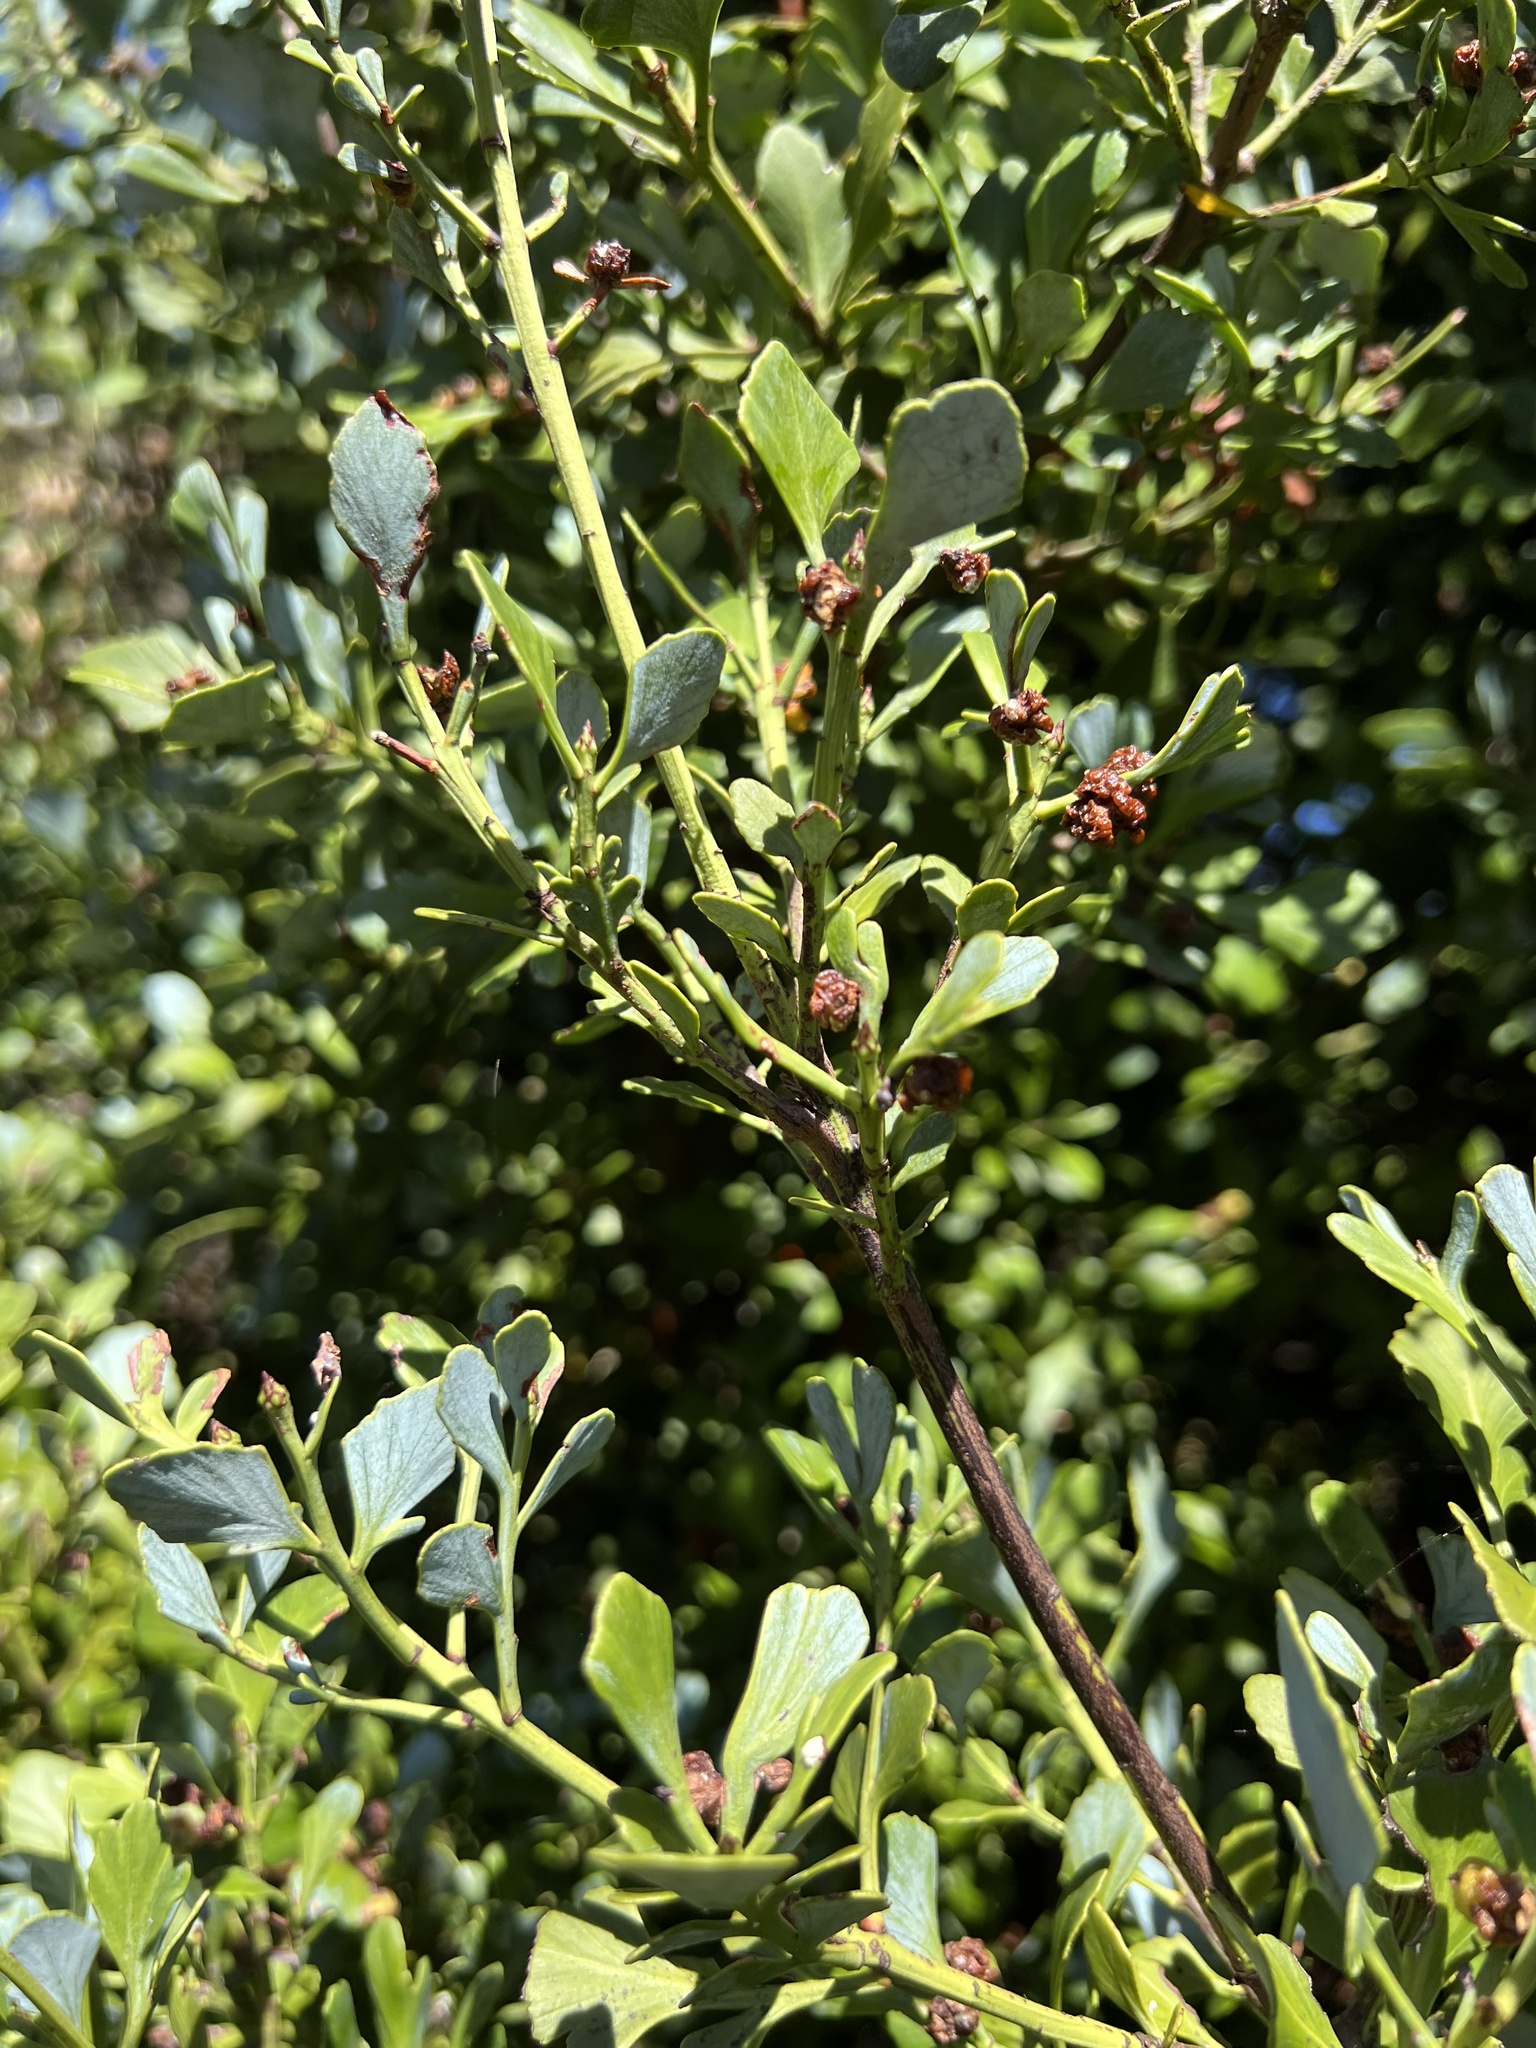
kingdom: Plantae
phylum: Tracheophyta
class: Pinopsida
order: Pinales
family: Phyllocladaceae
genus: Phyllocladus
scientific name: Phyllocladus trichomanoides
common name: Celery pine
